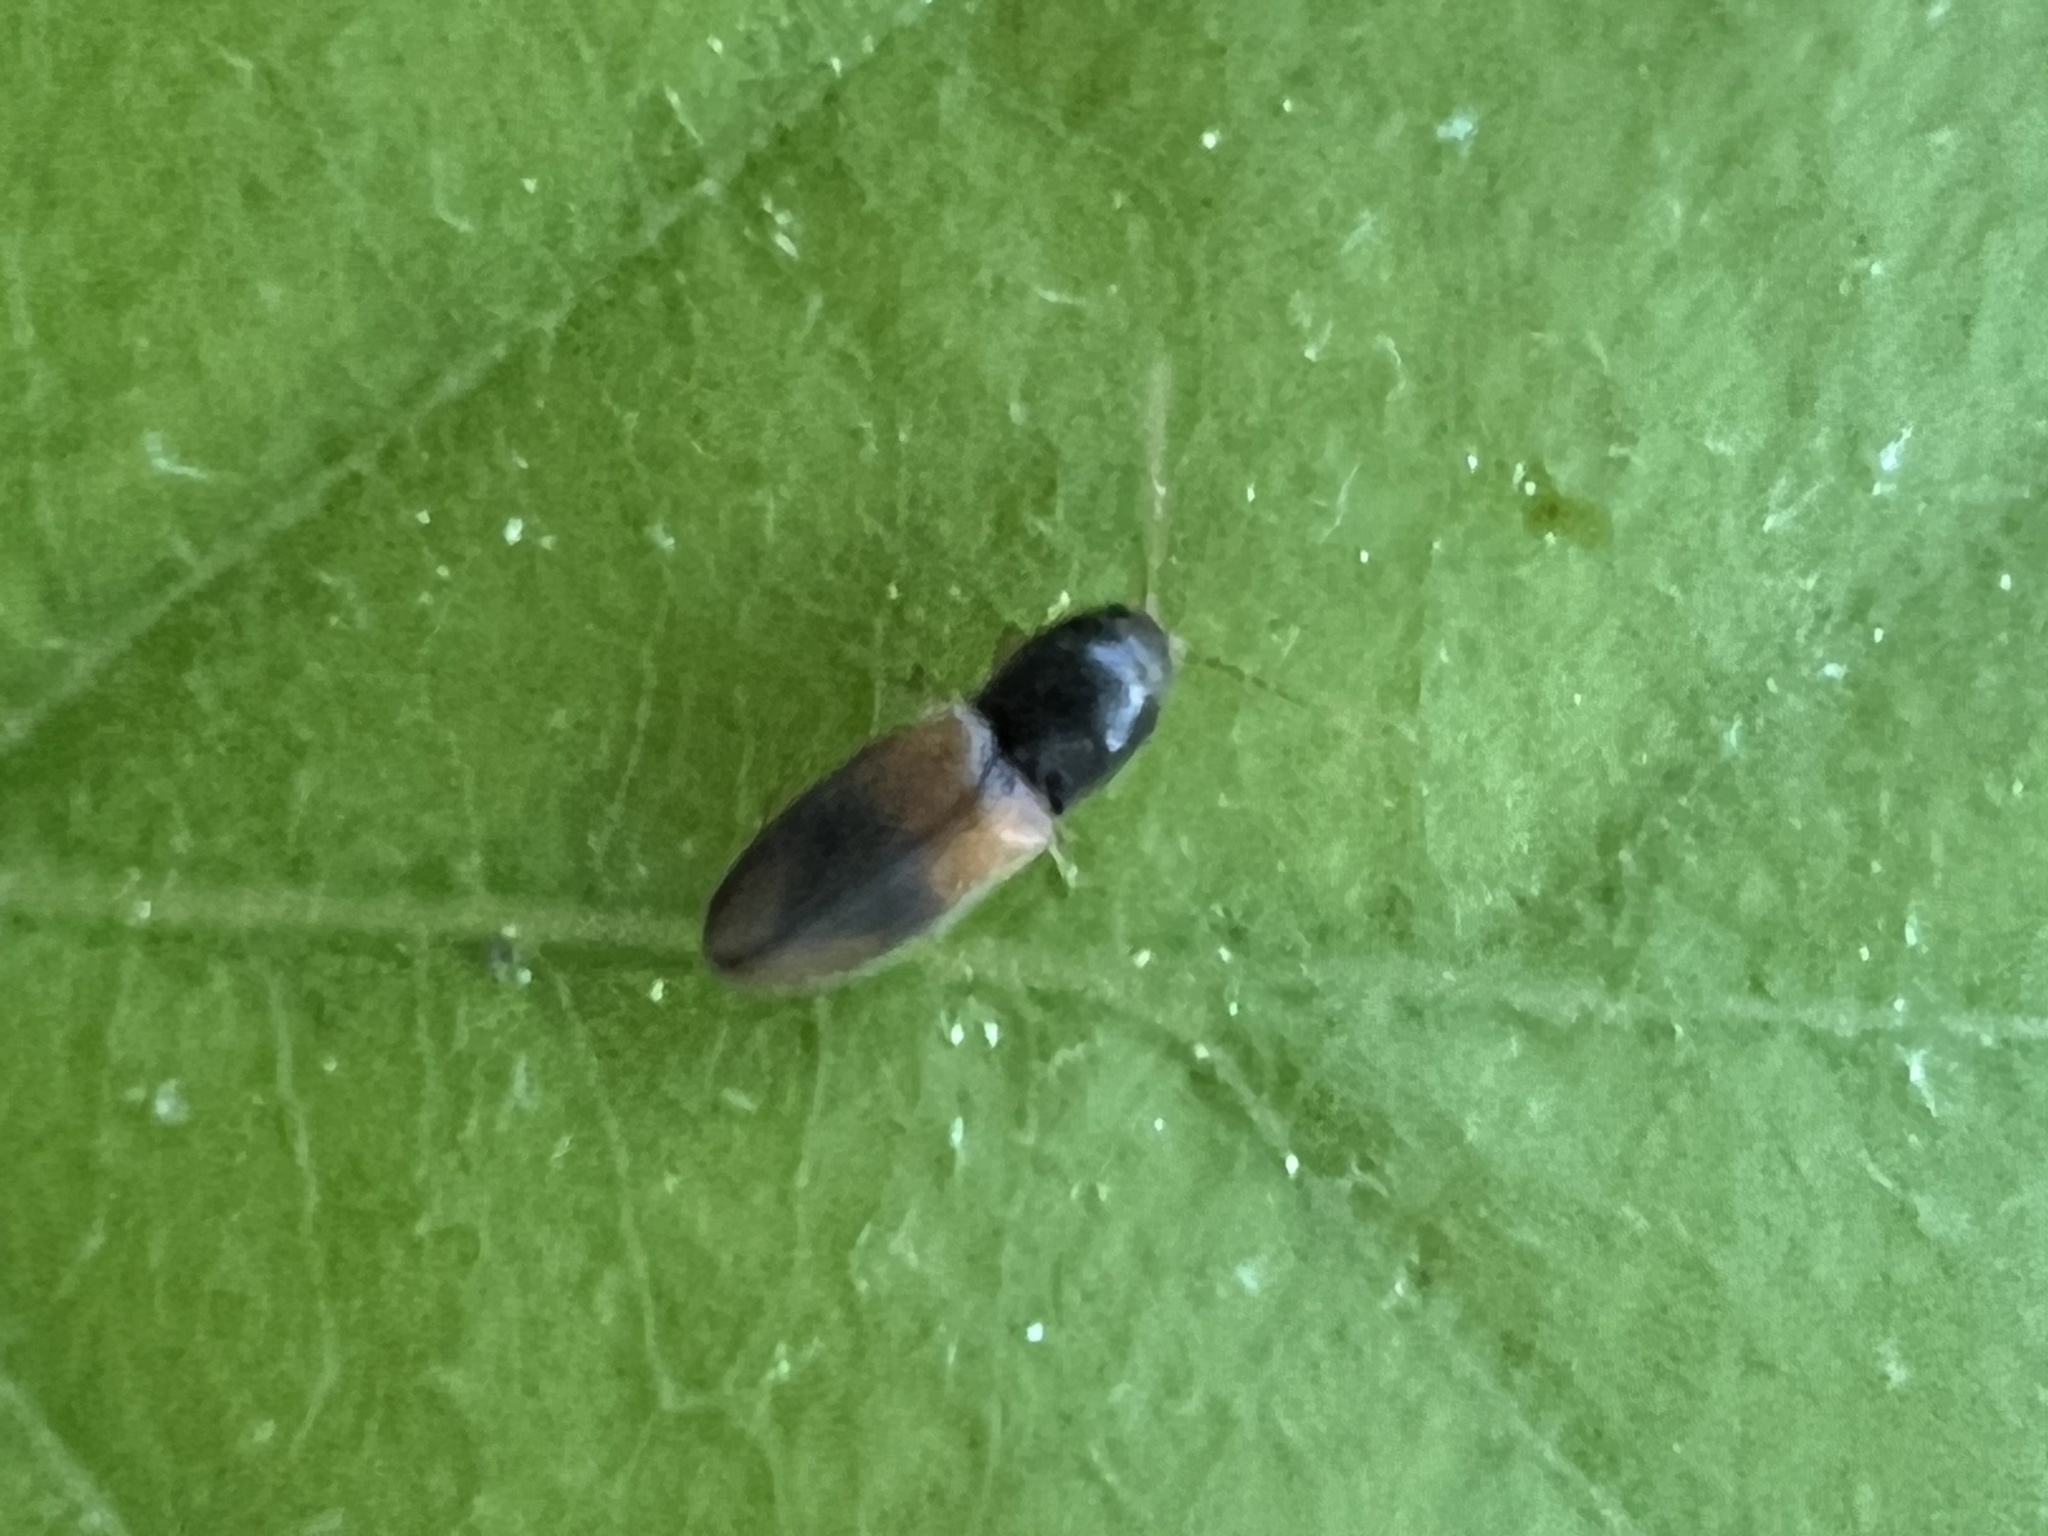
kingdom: Animalia
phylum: Arthropoda
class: Insecta
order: Coleoptera
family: Elateridae
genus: Horistonotus
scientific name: Horistonotus curiatus
